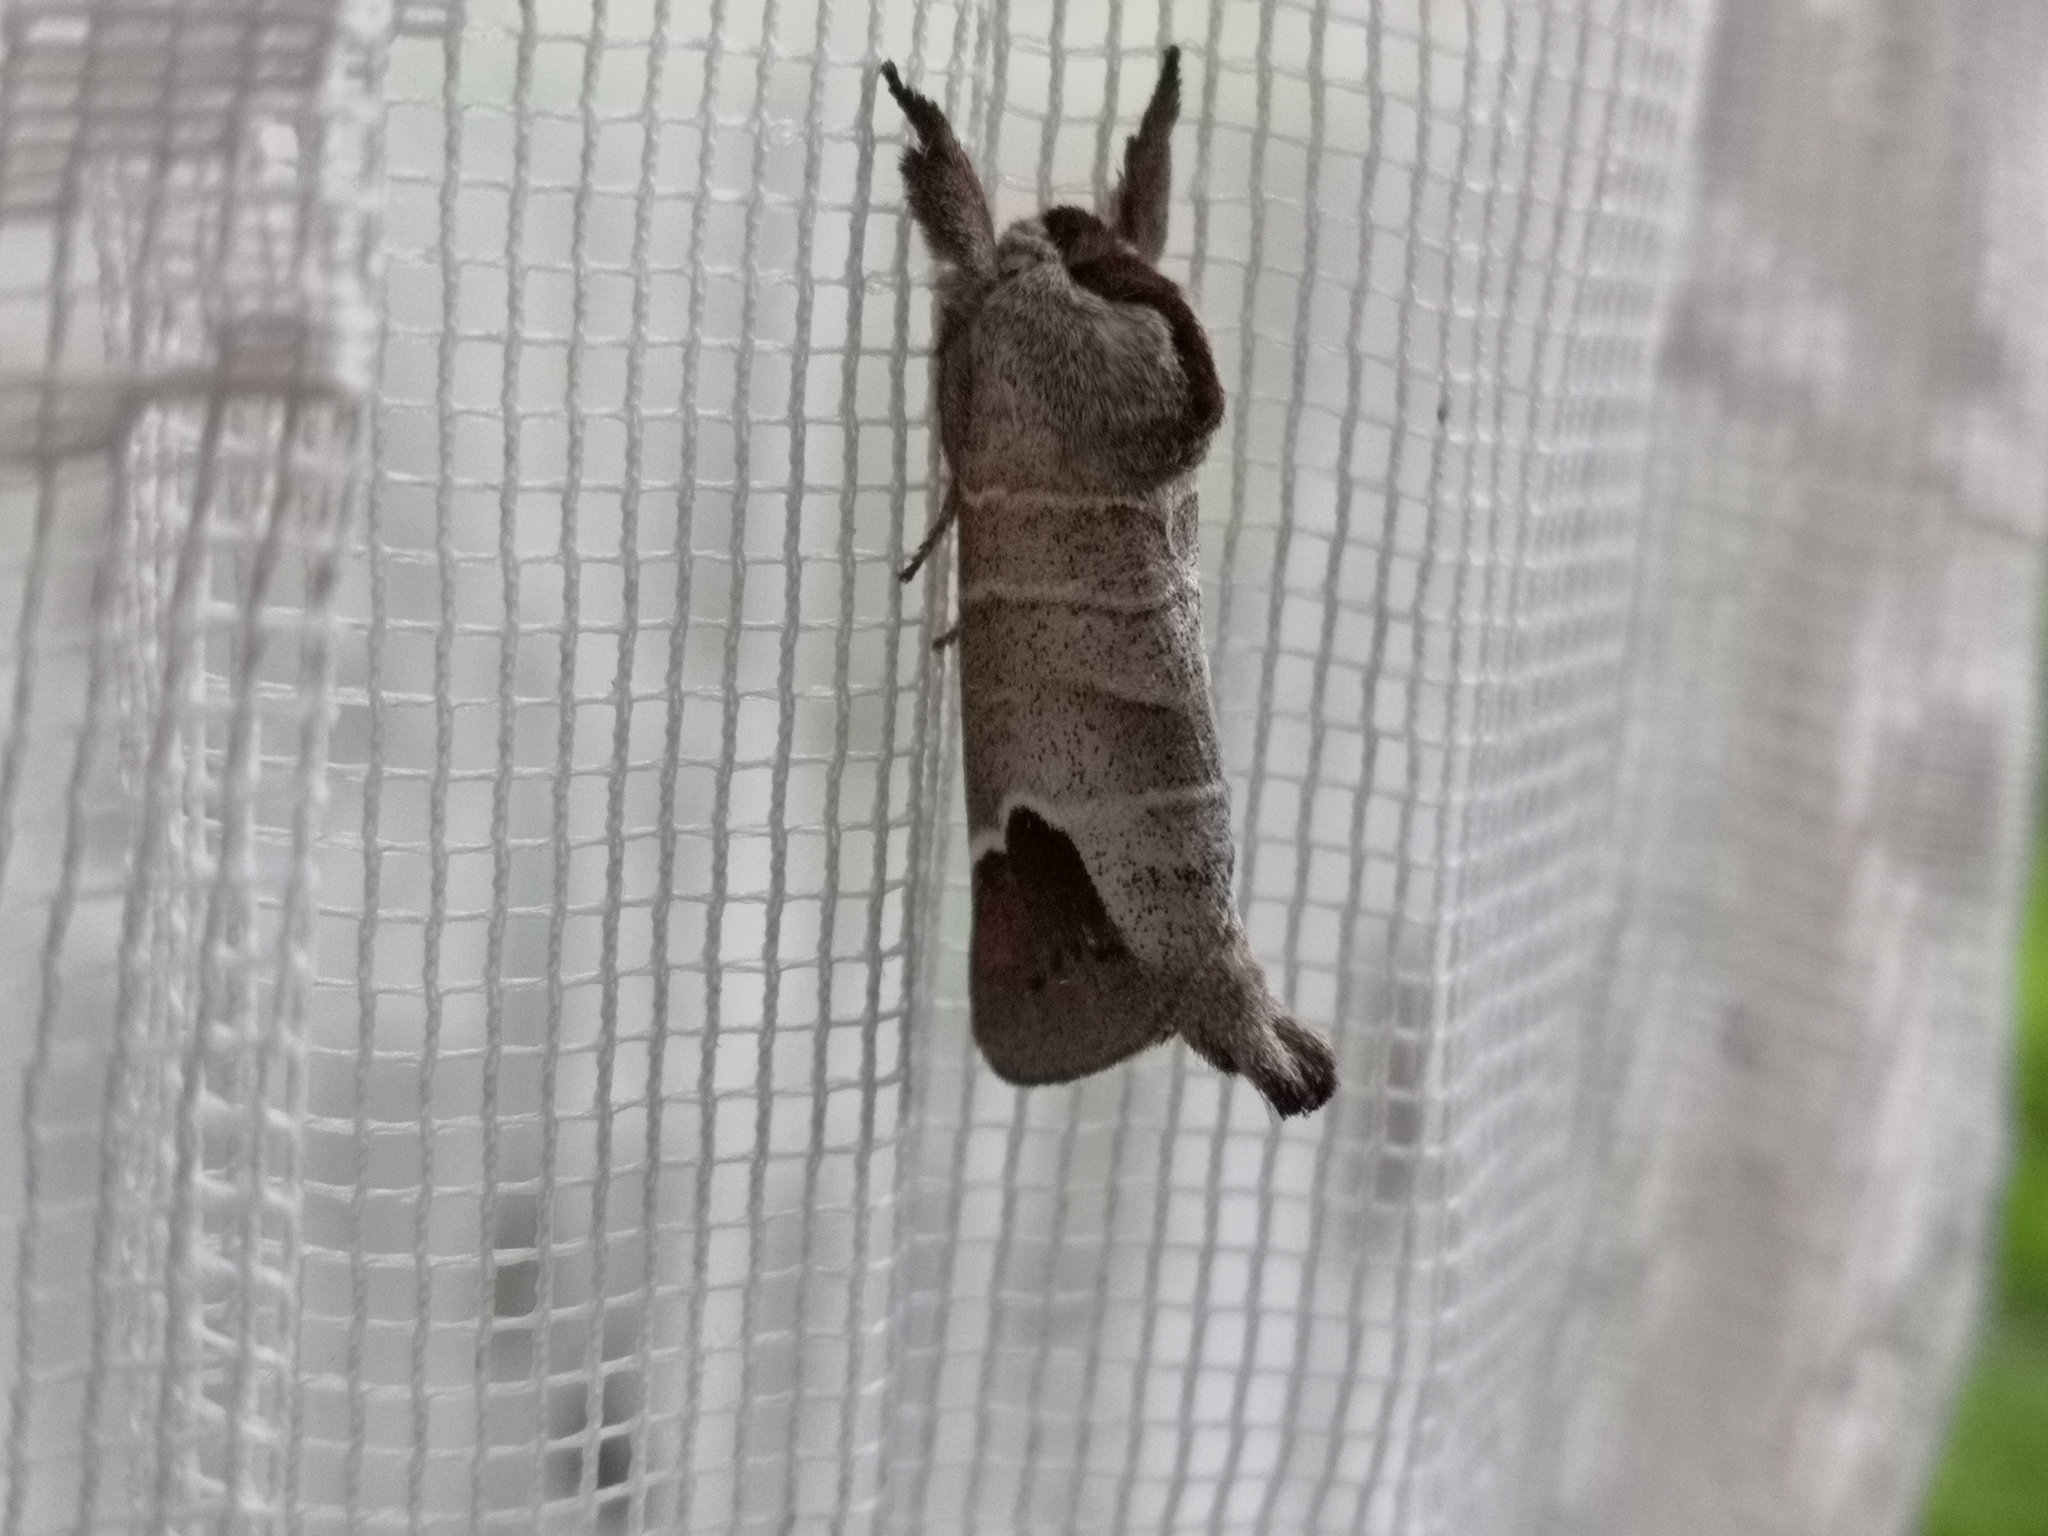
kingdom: Animalia
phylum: Arthropoda
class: Insecta
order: Lepidoptera
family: Notodontidae
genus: Clostera
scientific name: Clostera curtula
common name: Chocolate-tip
